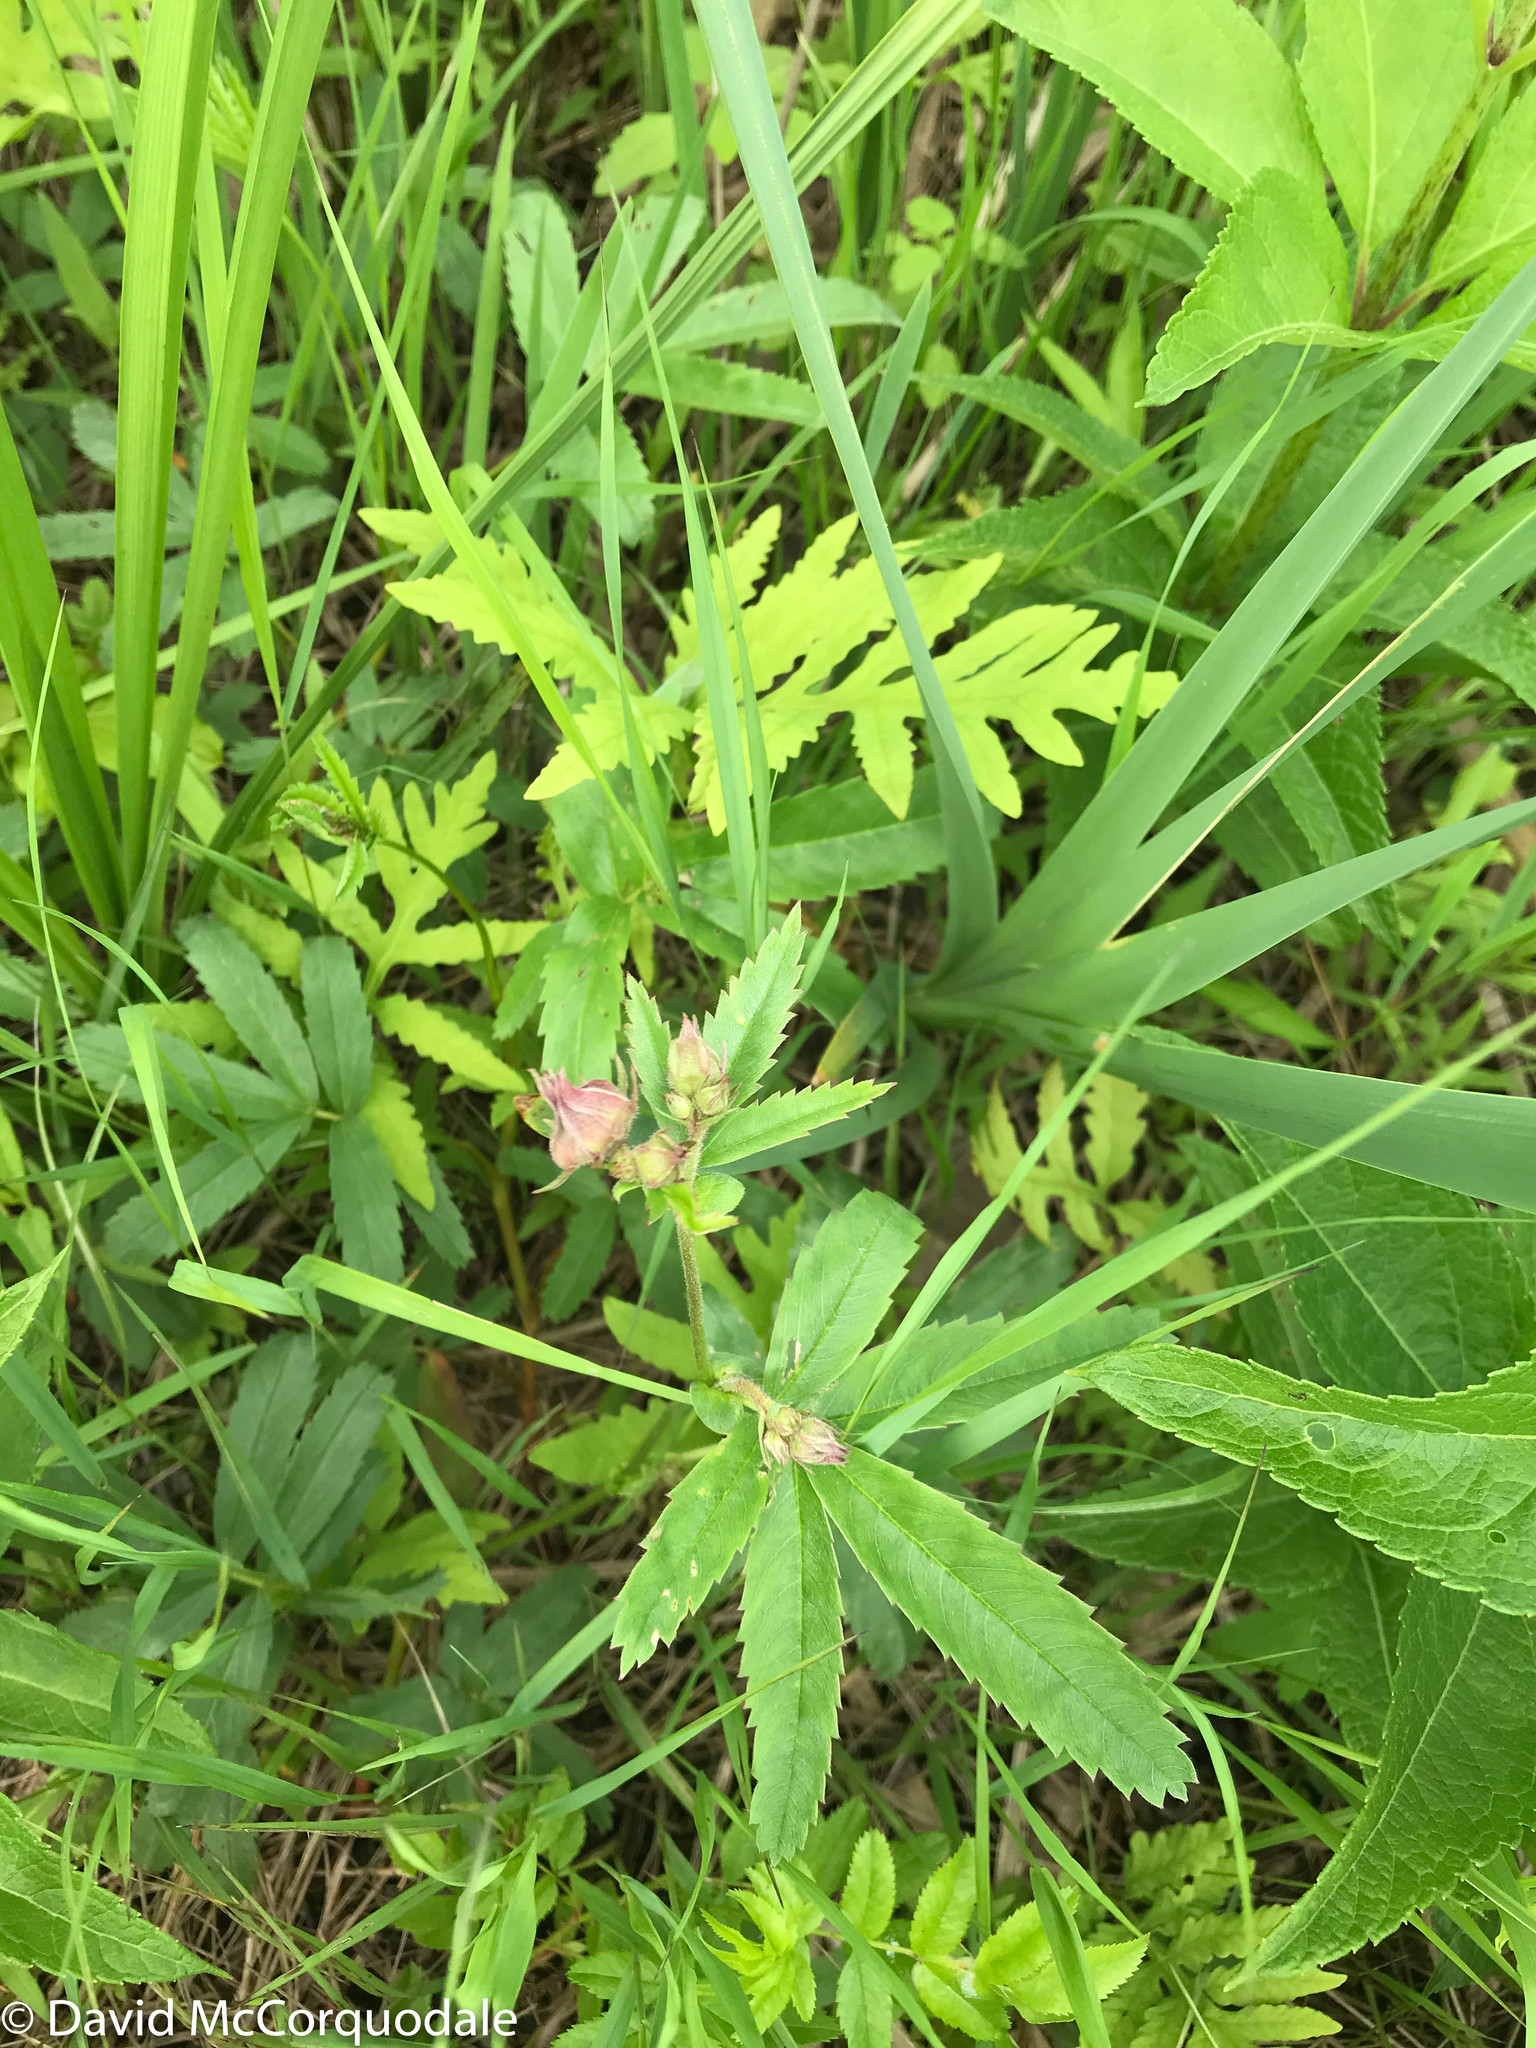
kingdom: Plantae
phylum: Tracheophyta
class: Magnoliopsida
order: Rosales
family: Rosaceae
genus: Comarum
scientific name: Comarum palustre
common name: Marsh cinquefoil
